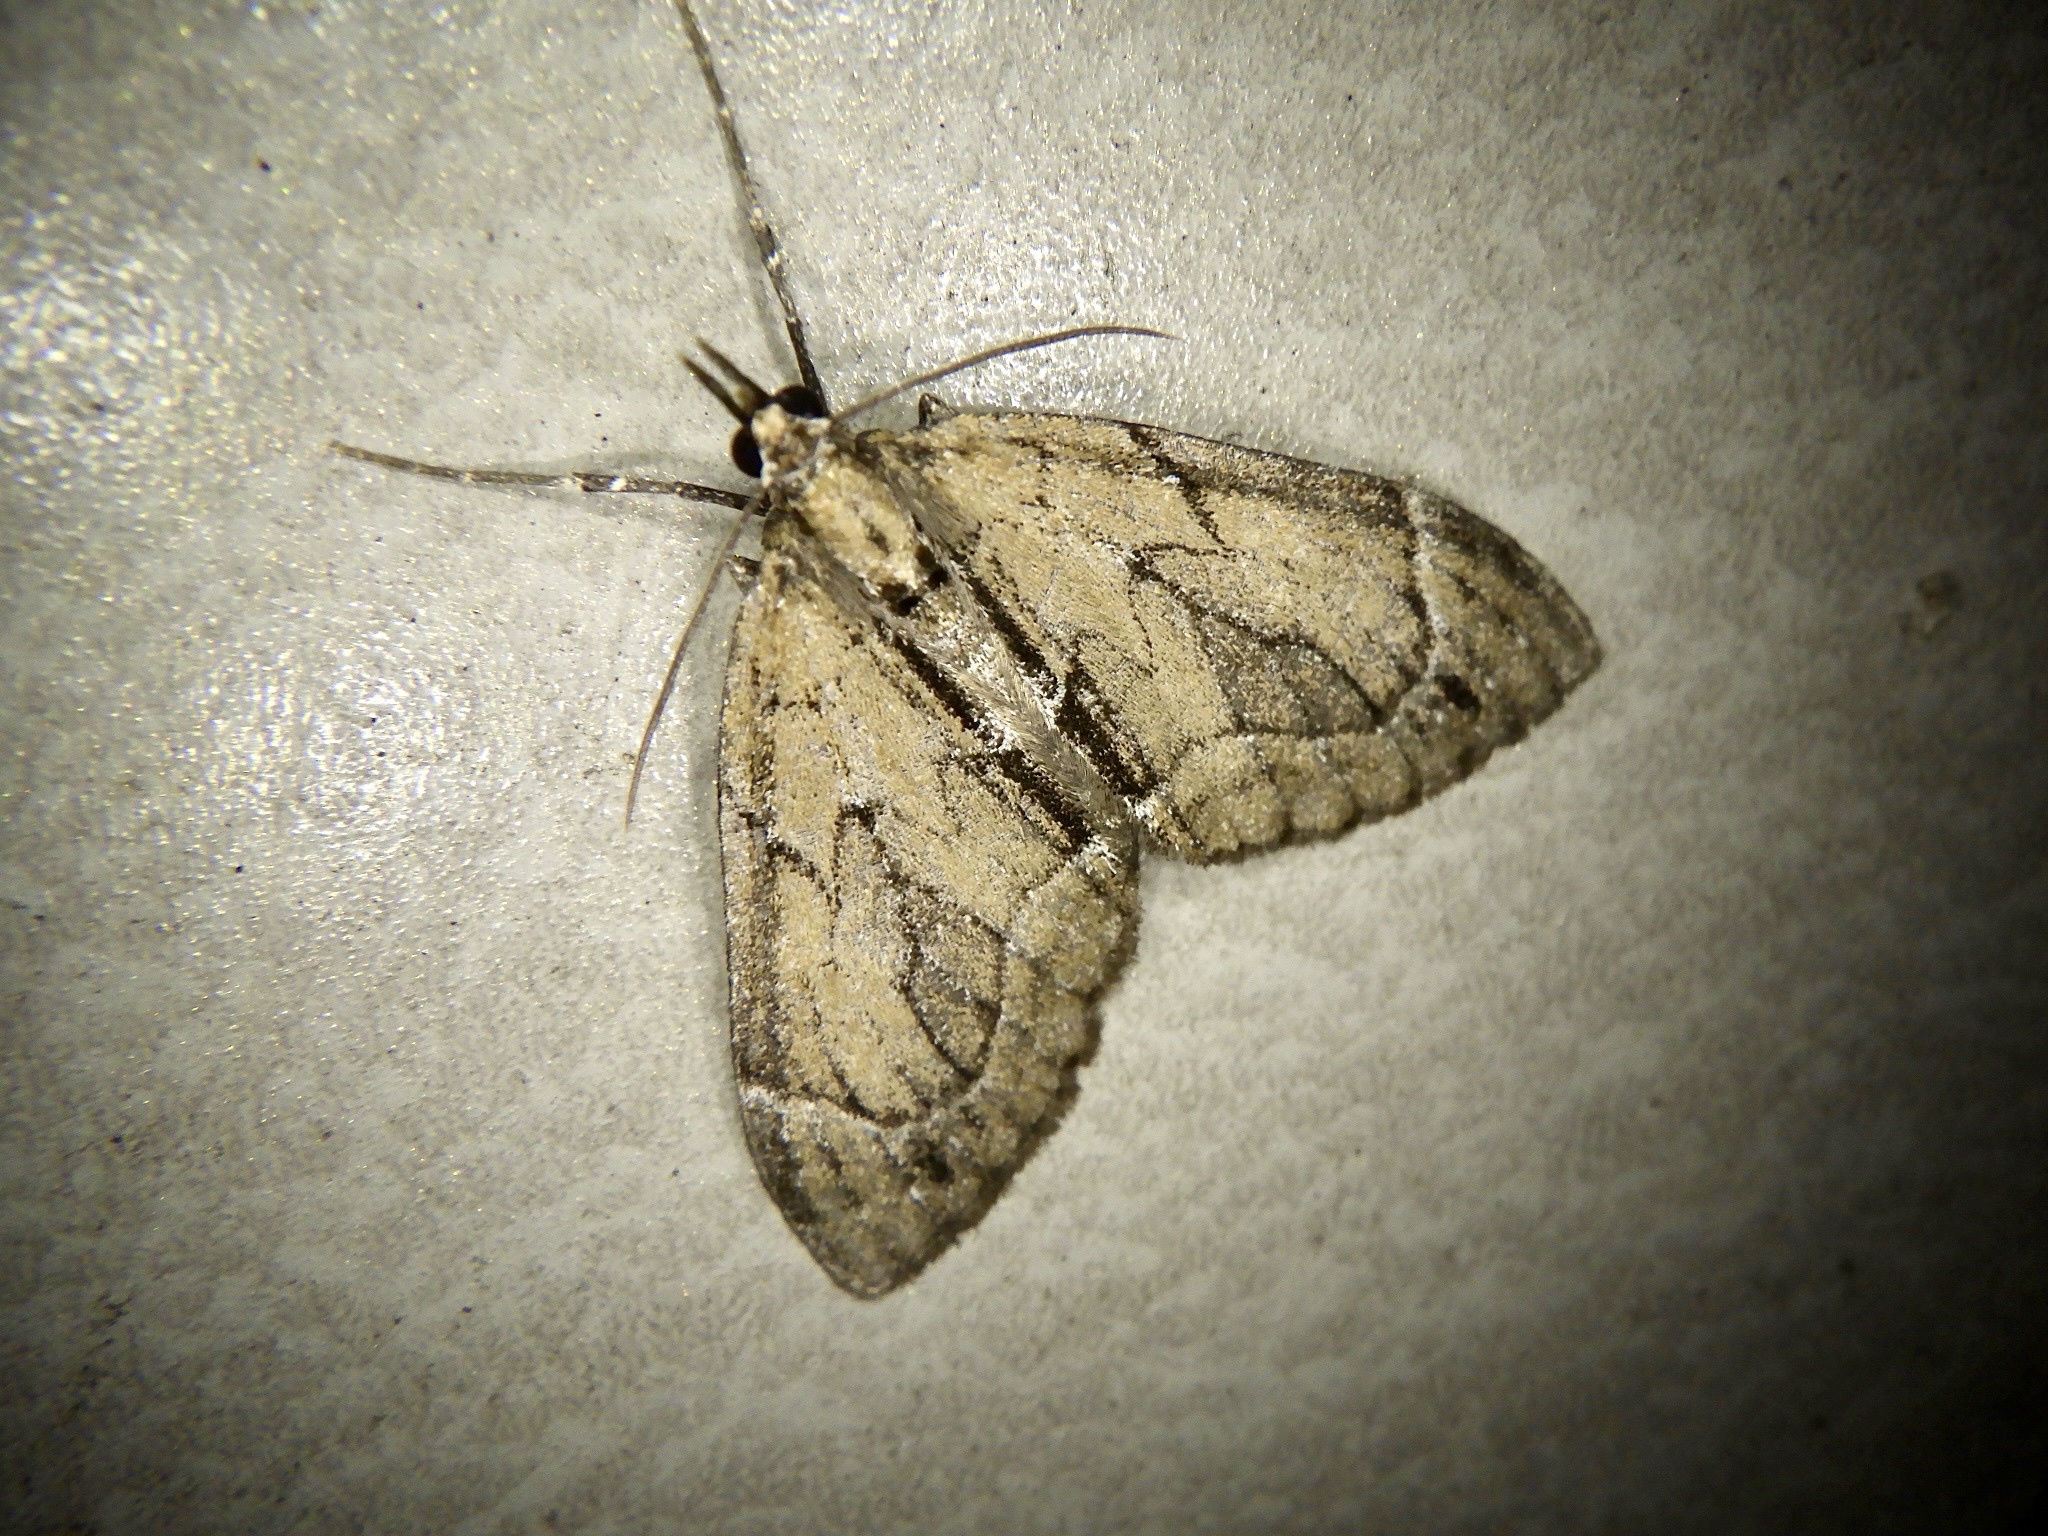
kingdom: Animalia
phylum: Arthropoda
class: Insecta
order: Lepidoptera
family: Geometridae
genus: Lobophorodes
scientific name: Lobophorodes
